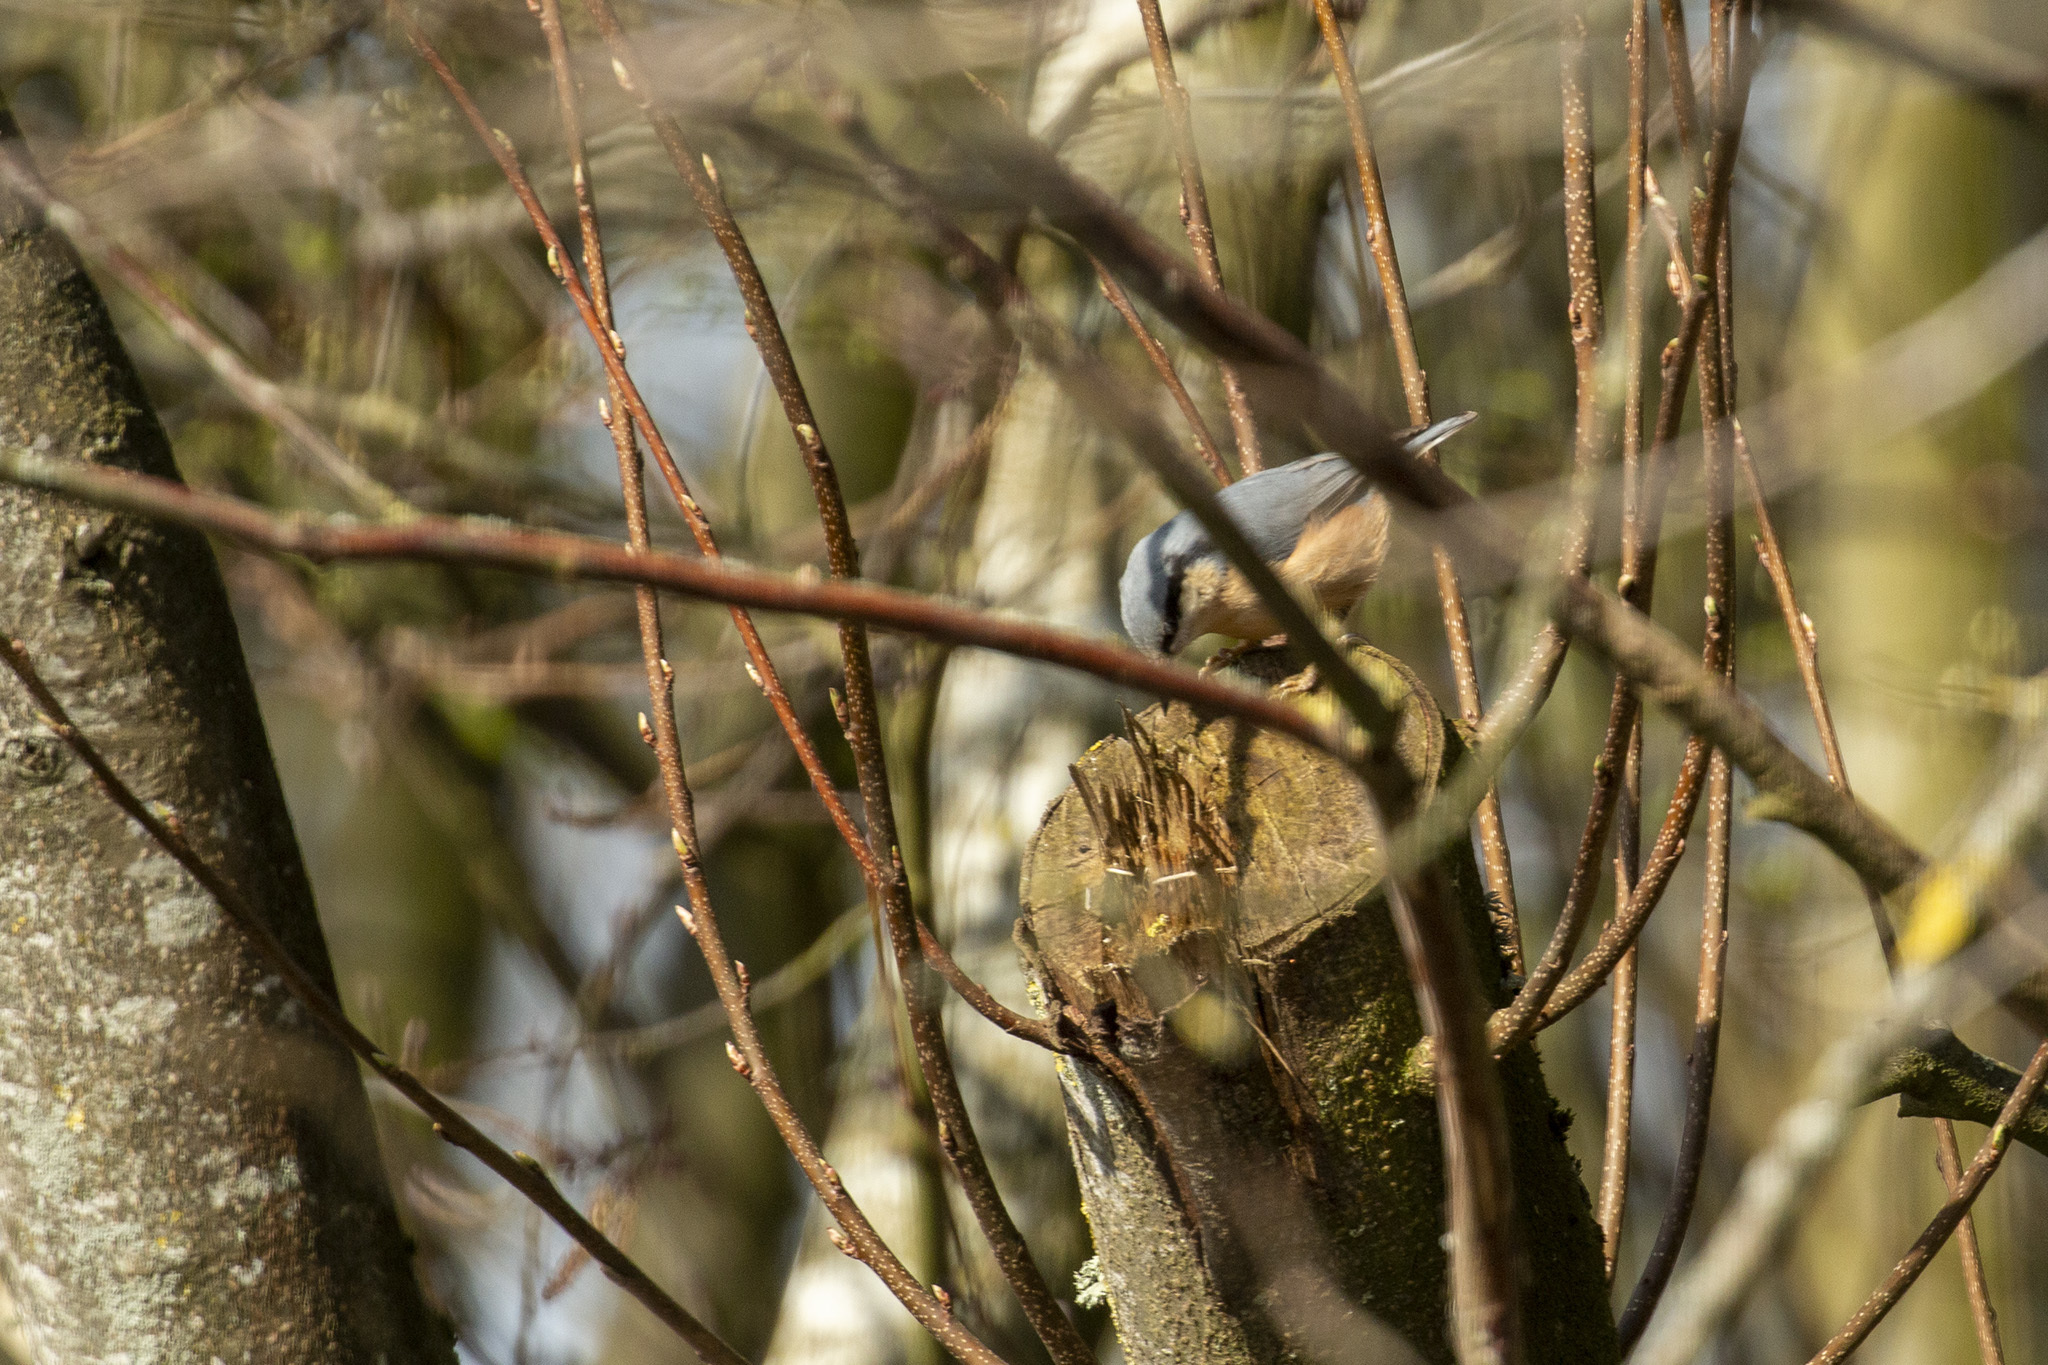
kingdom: Animalia
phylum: Chordata
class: Aves
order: Passeriformes
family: Sittidae
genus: Sitta
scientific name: Sitta europaea
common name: Eurasian nuthatch
